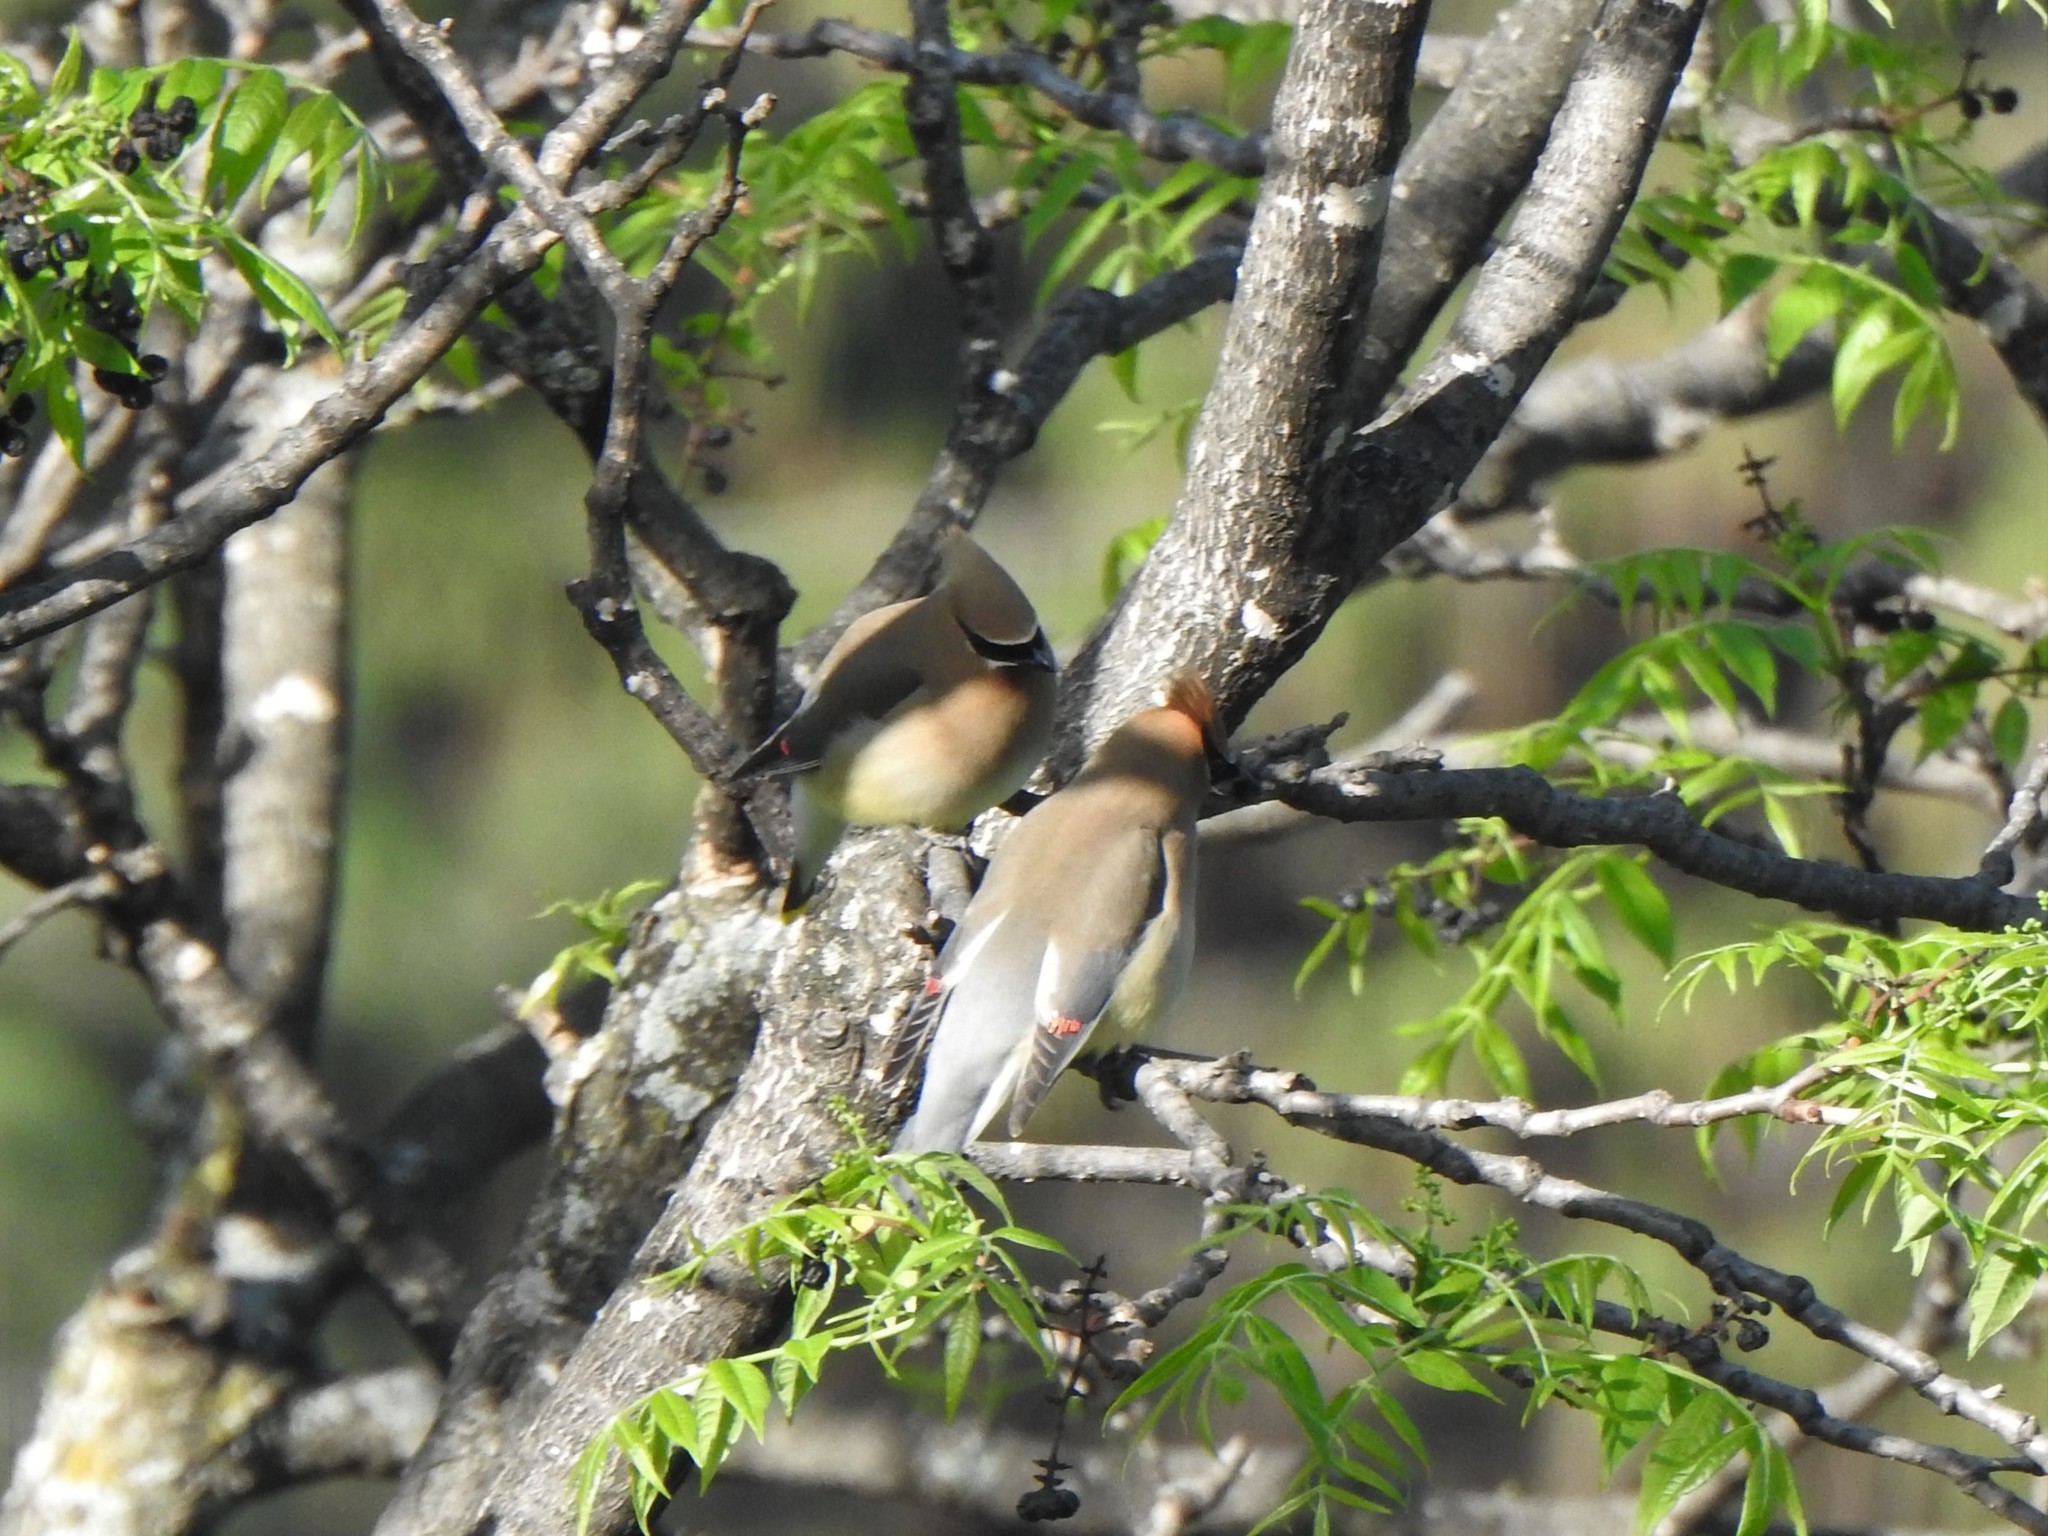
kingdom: Animalia
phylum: Chordata
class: Aves
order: Passeriformes
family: Bombycillidae
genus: Bombycilla
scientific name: Bombycilla cedrorum
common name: Cedar waxwing
